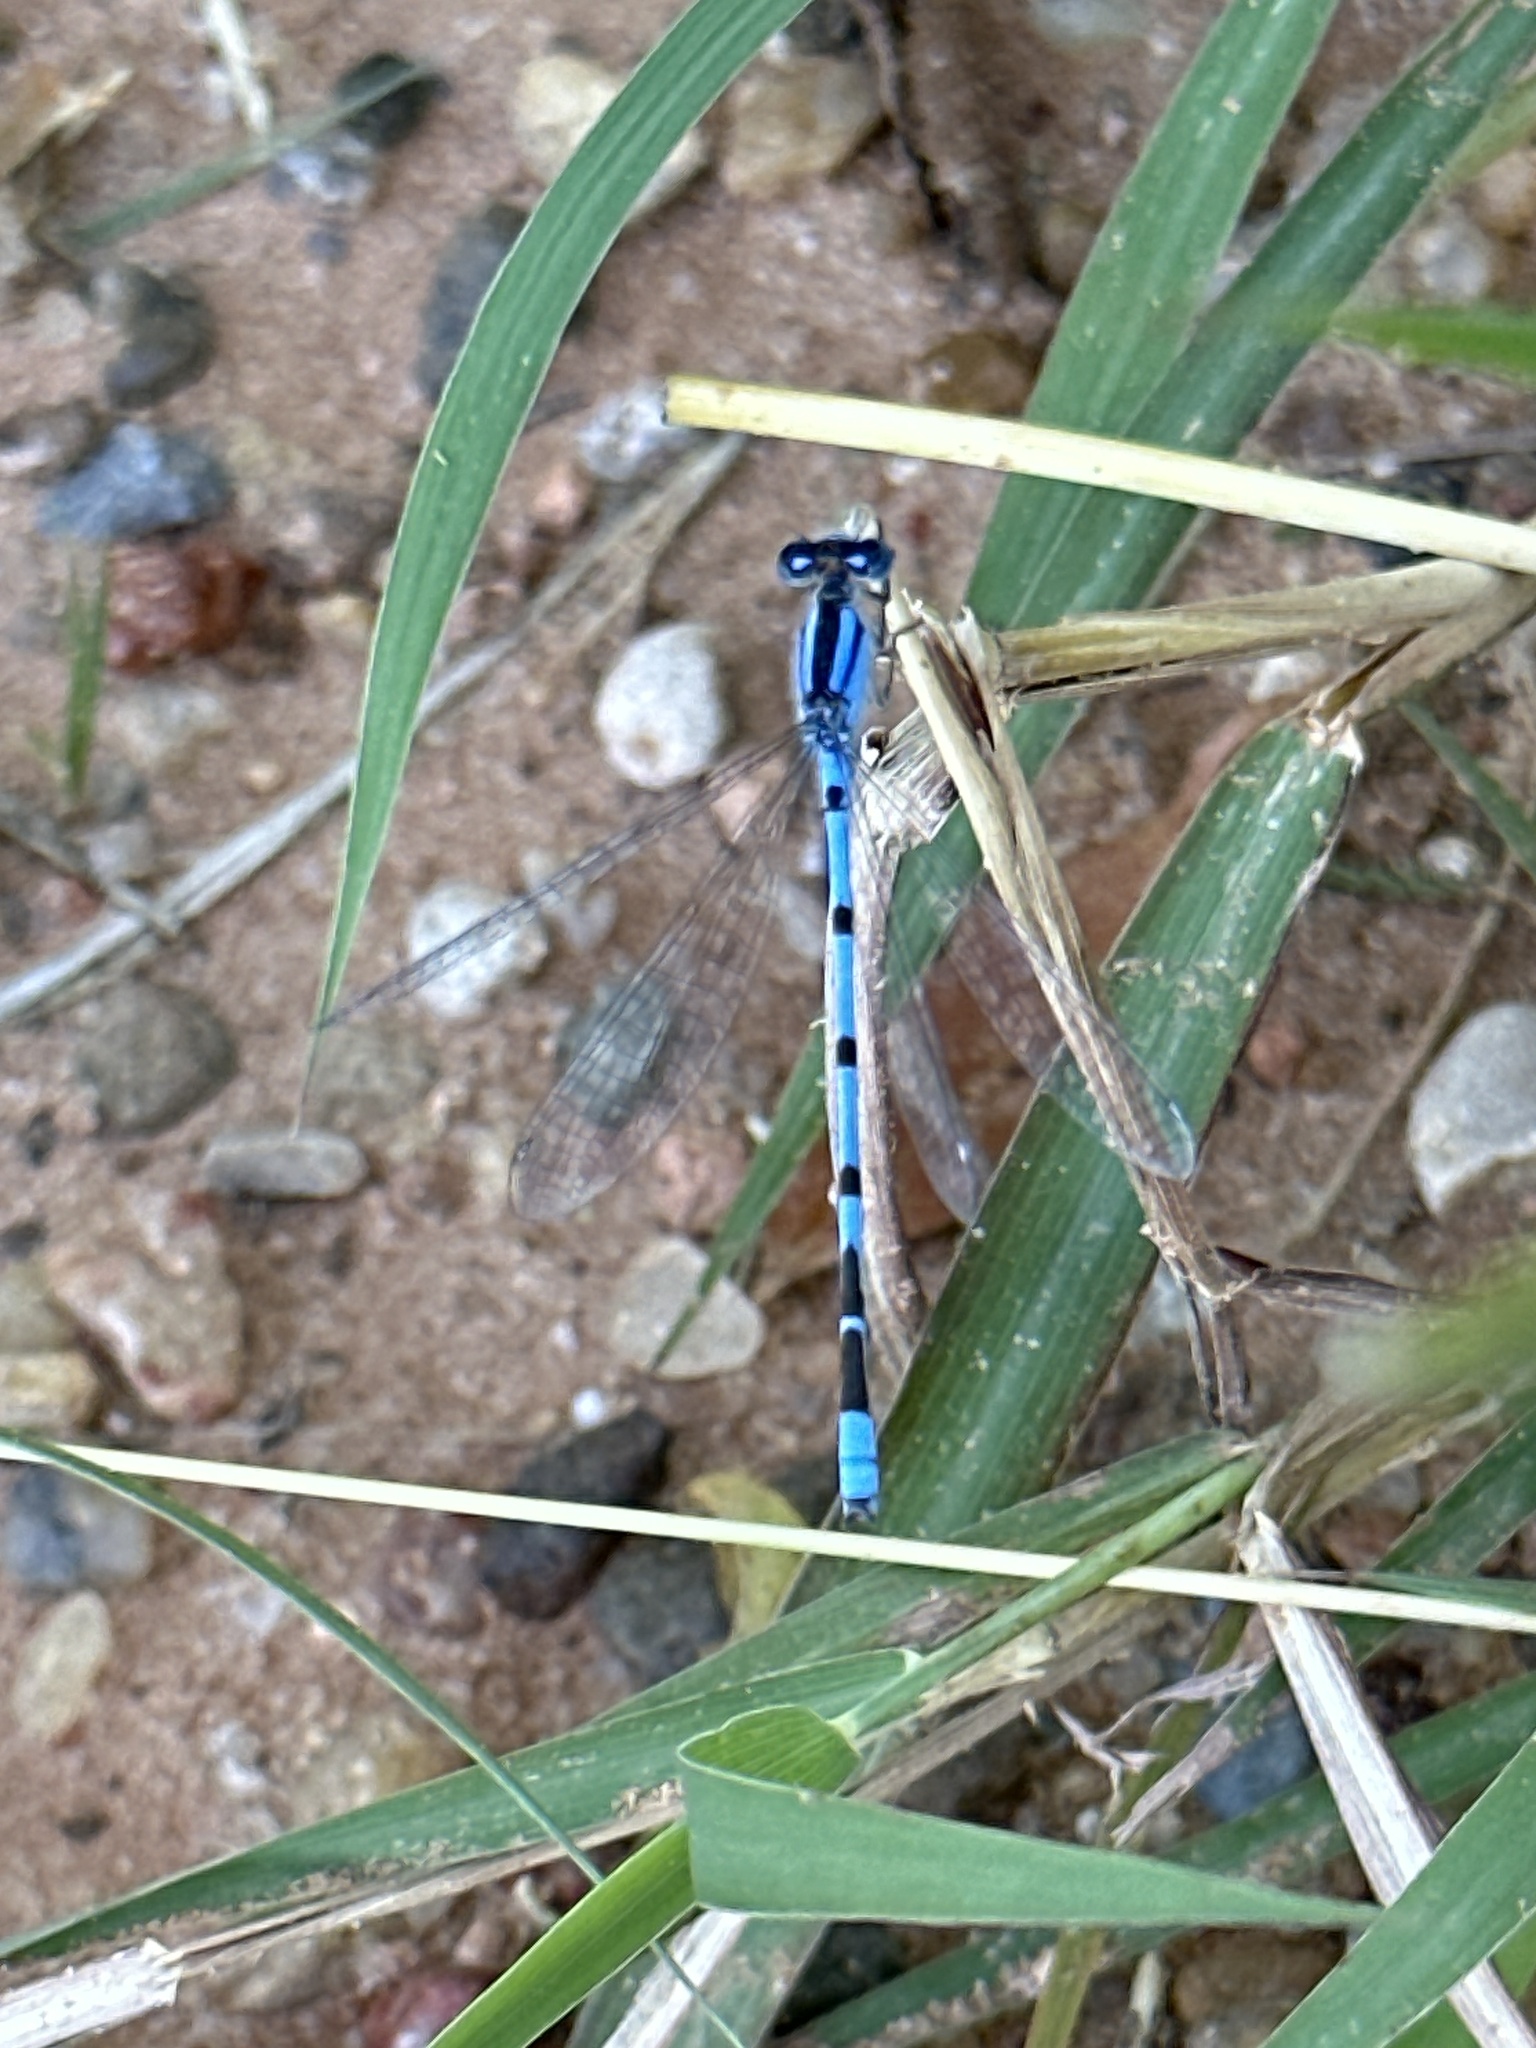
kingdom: Animalia
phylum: Arthropoda
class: Insecta
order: Odonata
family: Coenagrionidae
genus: Enallagma
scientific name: Enallagma civile
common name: Damselfly
